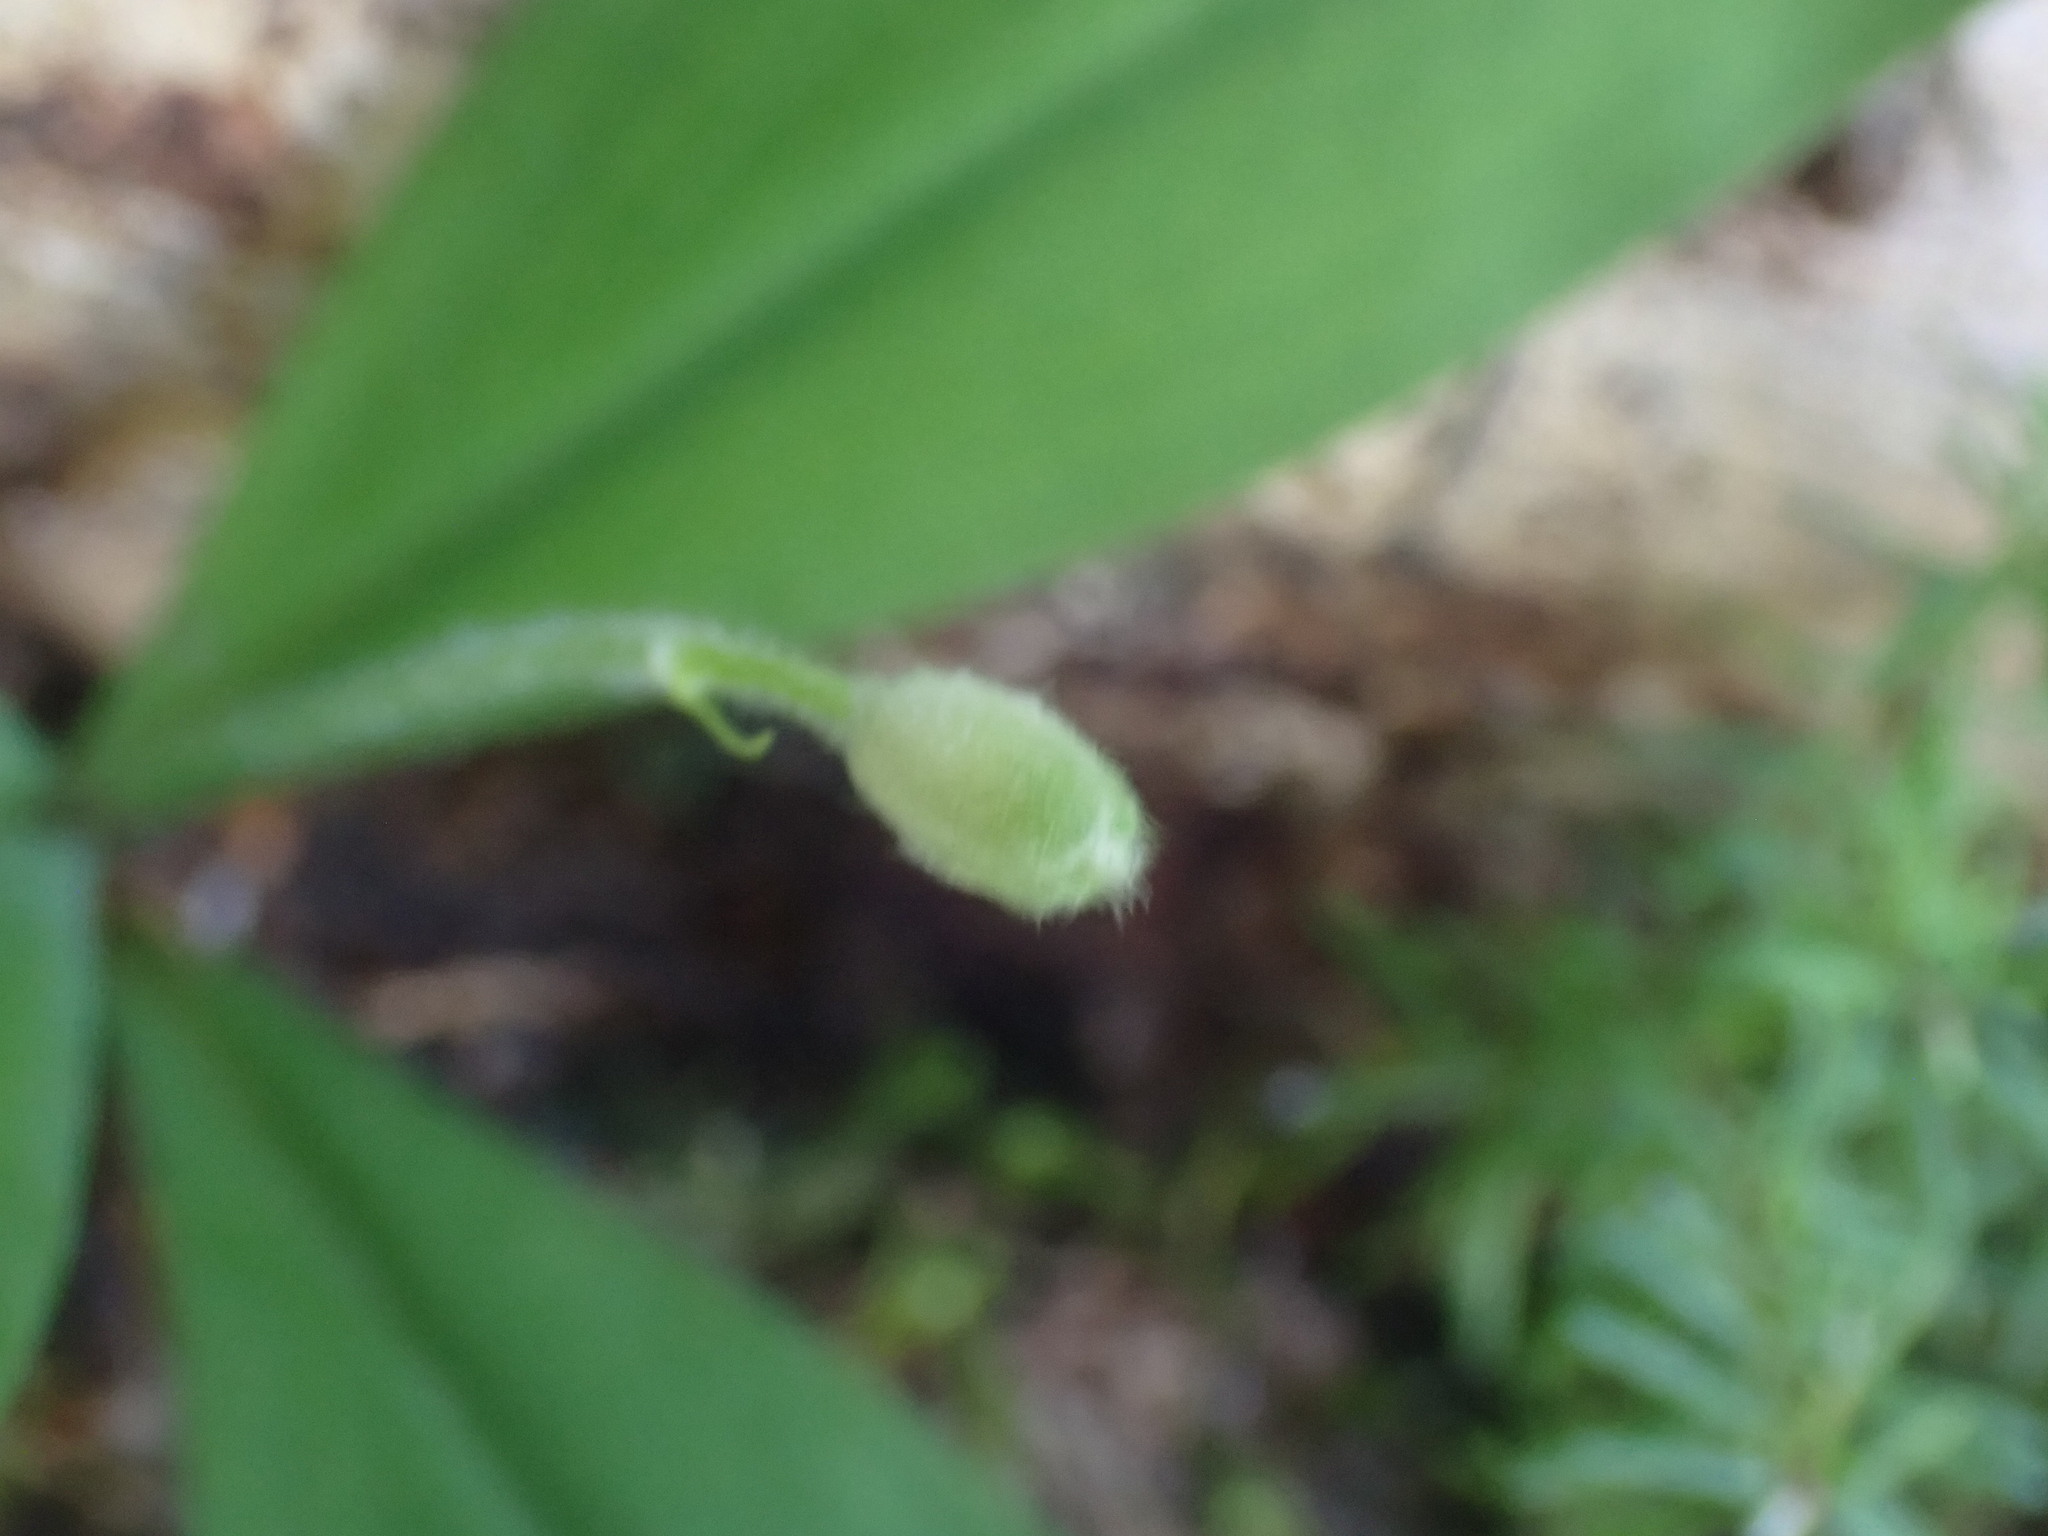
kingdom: Plantae
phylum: Tracheophyta
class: Liliopsida
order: Liliales
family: Liliaceae
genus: Clintonia
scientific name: Clintonia uniflora
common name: Queen's cup
